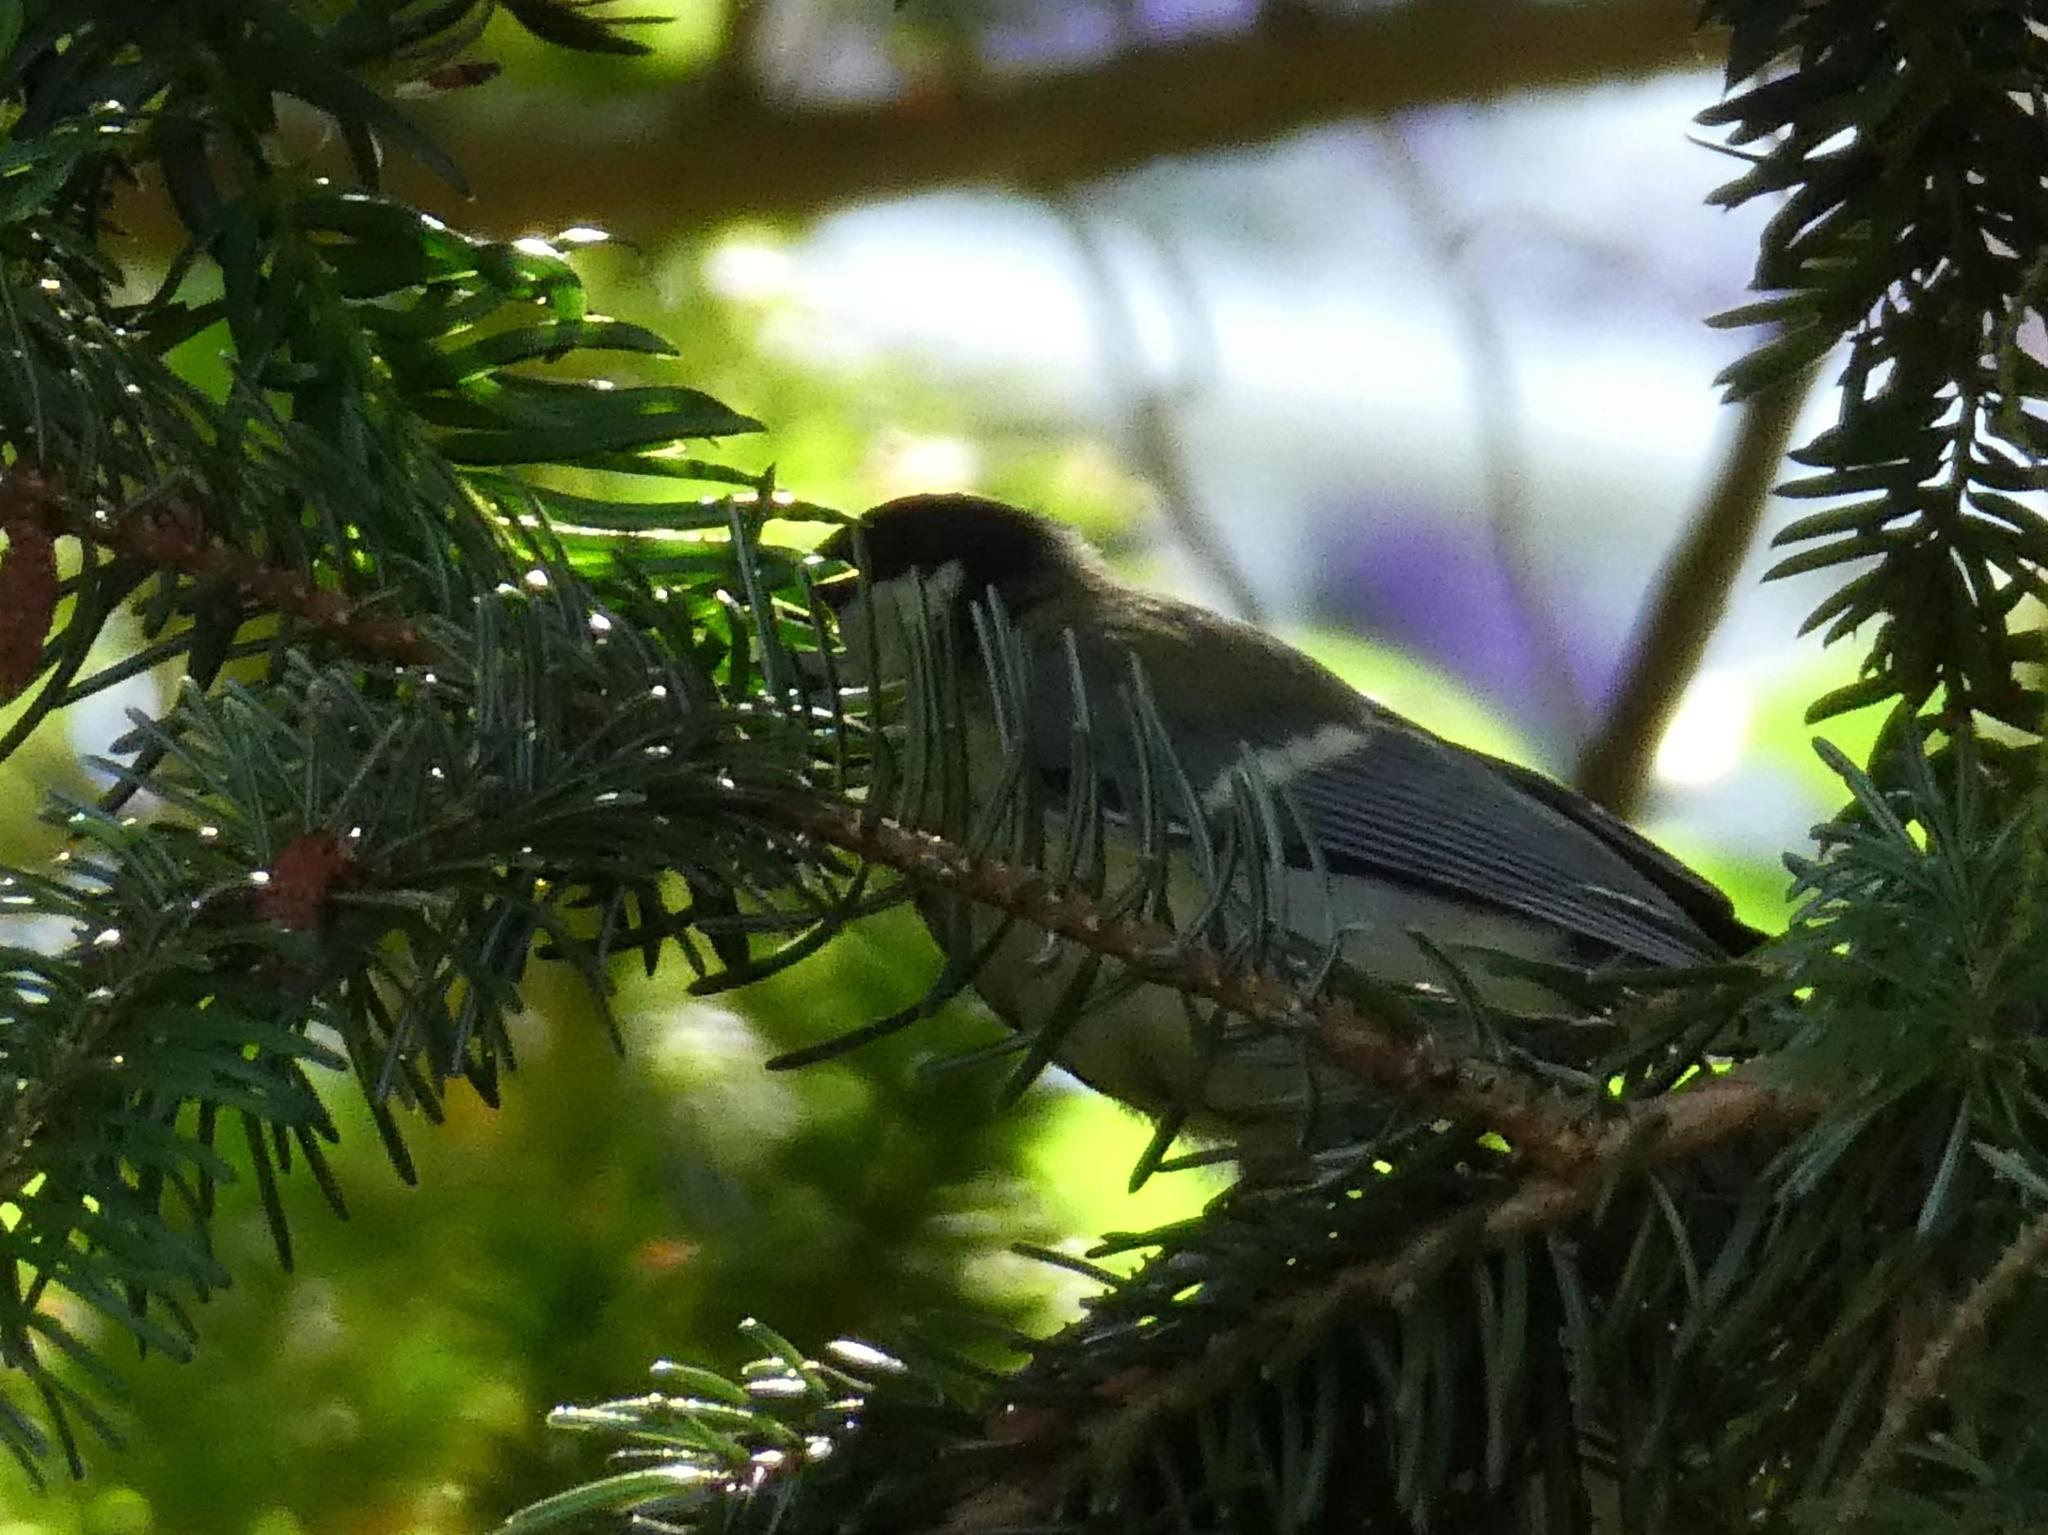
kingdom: Animalia
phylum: Chordata
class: Aves
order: Passeriformes
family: Paridae
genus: Parus
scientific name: Parus major
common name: Great tit
